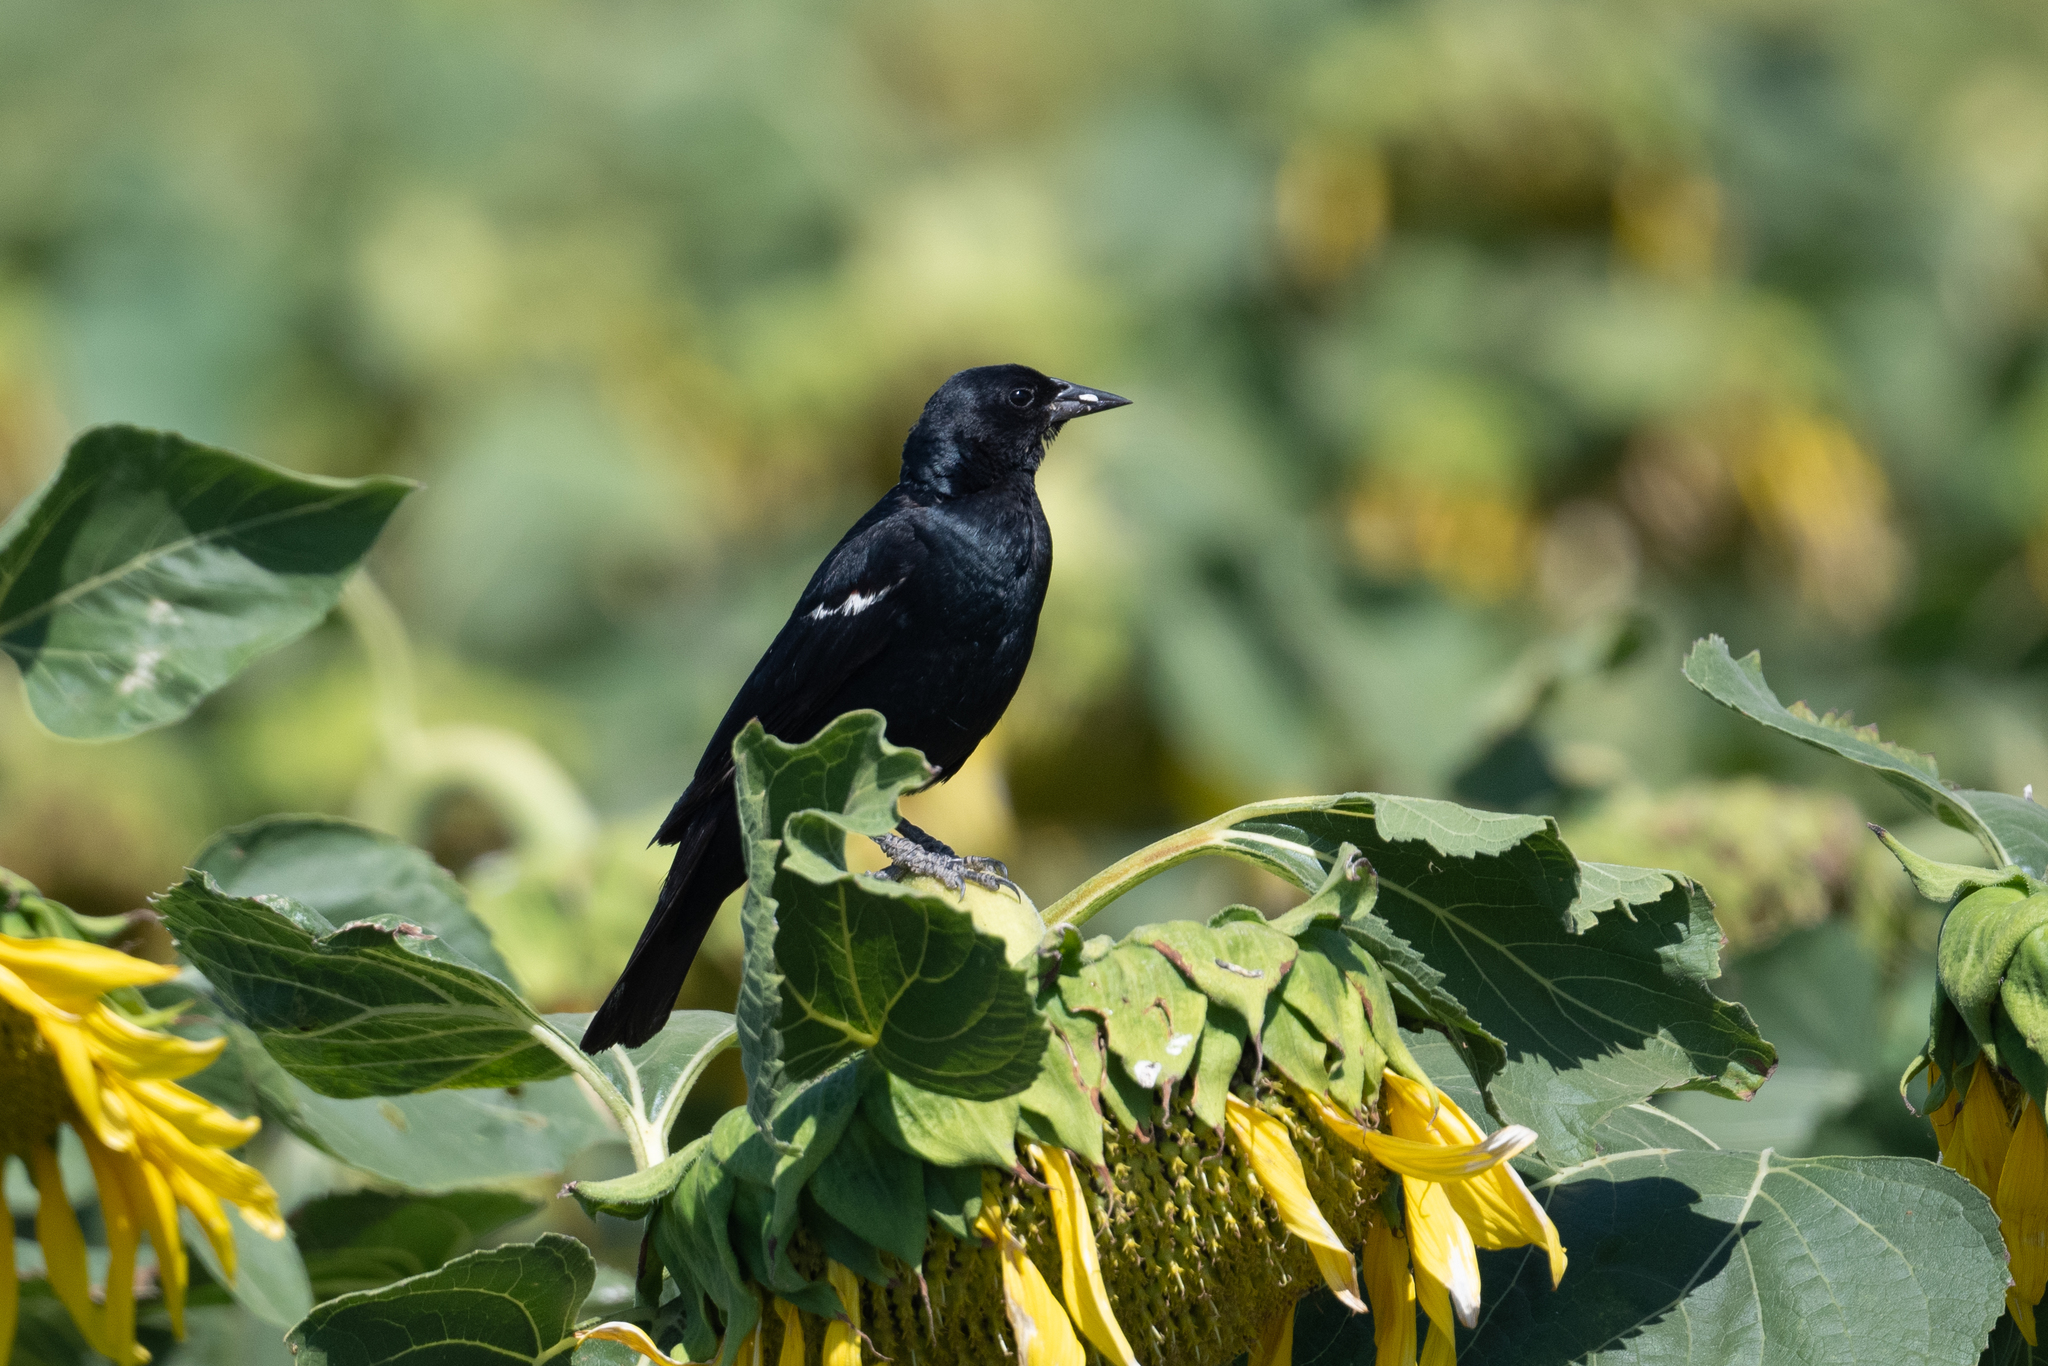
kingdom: Animalia
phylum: Chordata
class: Aves
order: Passeriformes
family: Icteridae
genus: Agelaius
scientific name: Agelaius tricolor
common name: Tricolored blackbird
